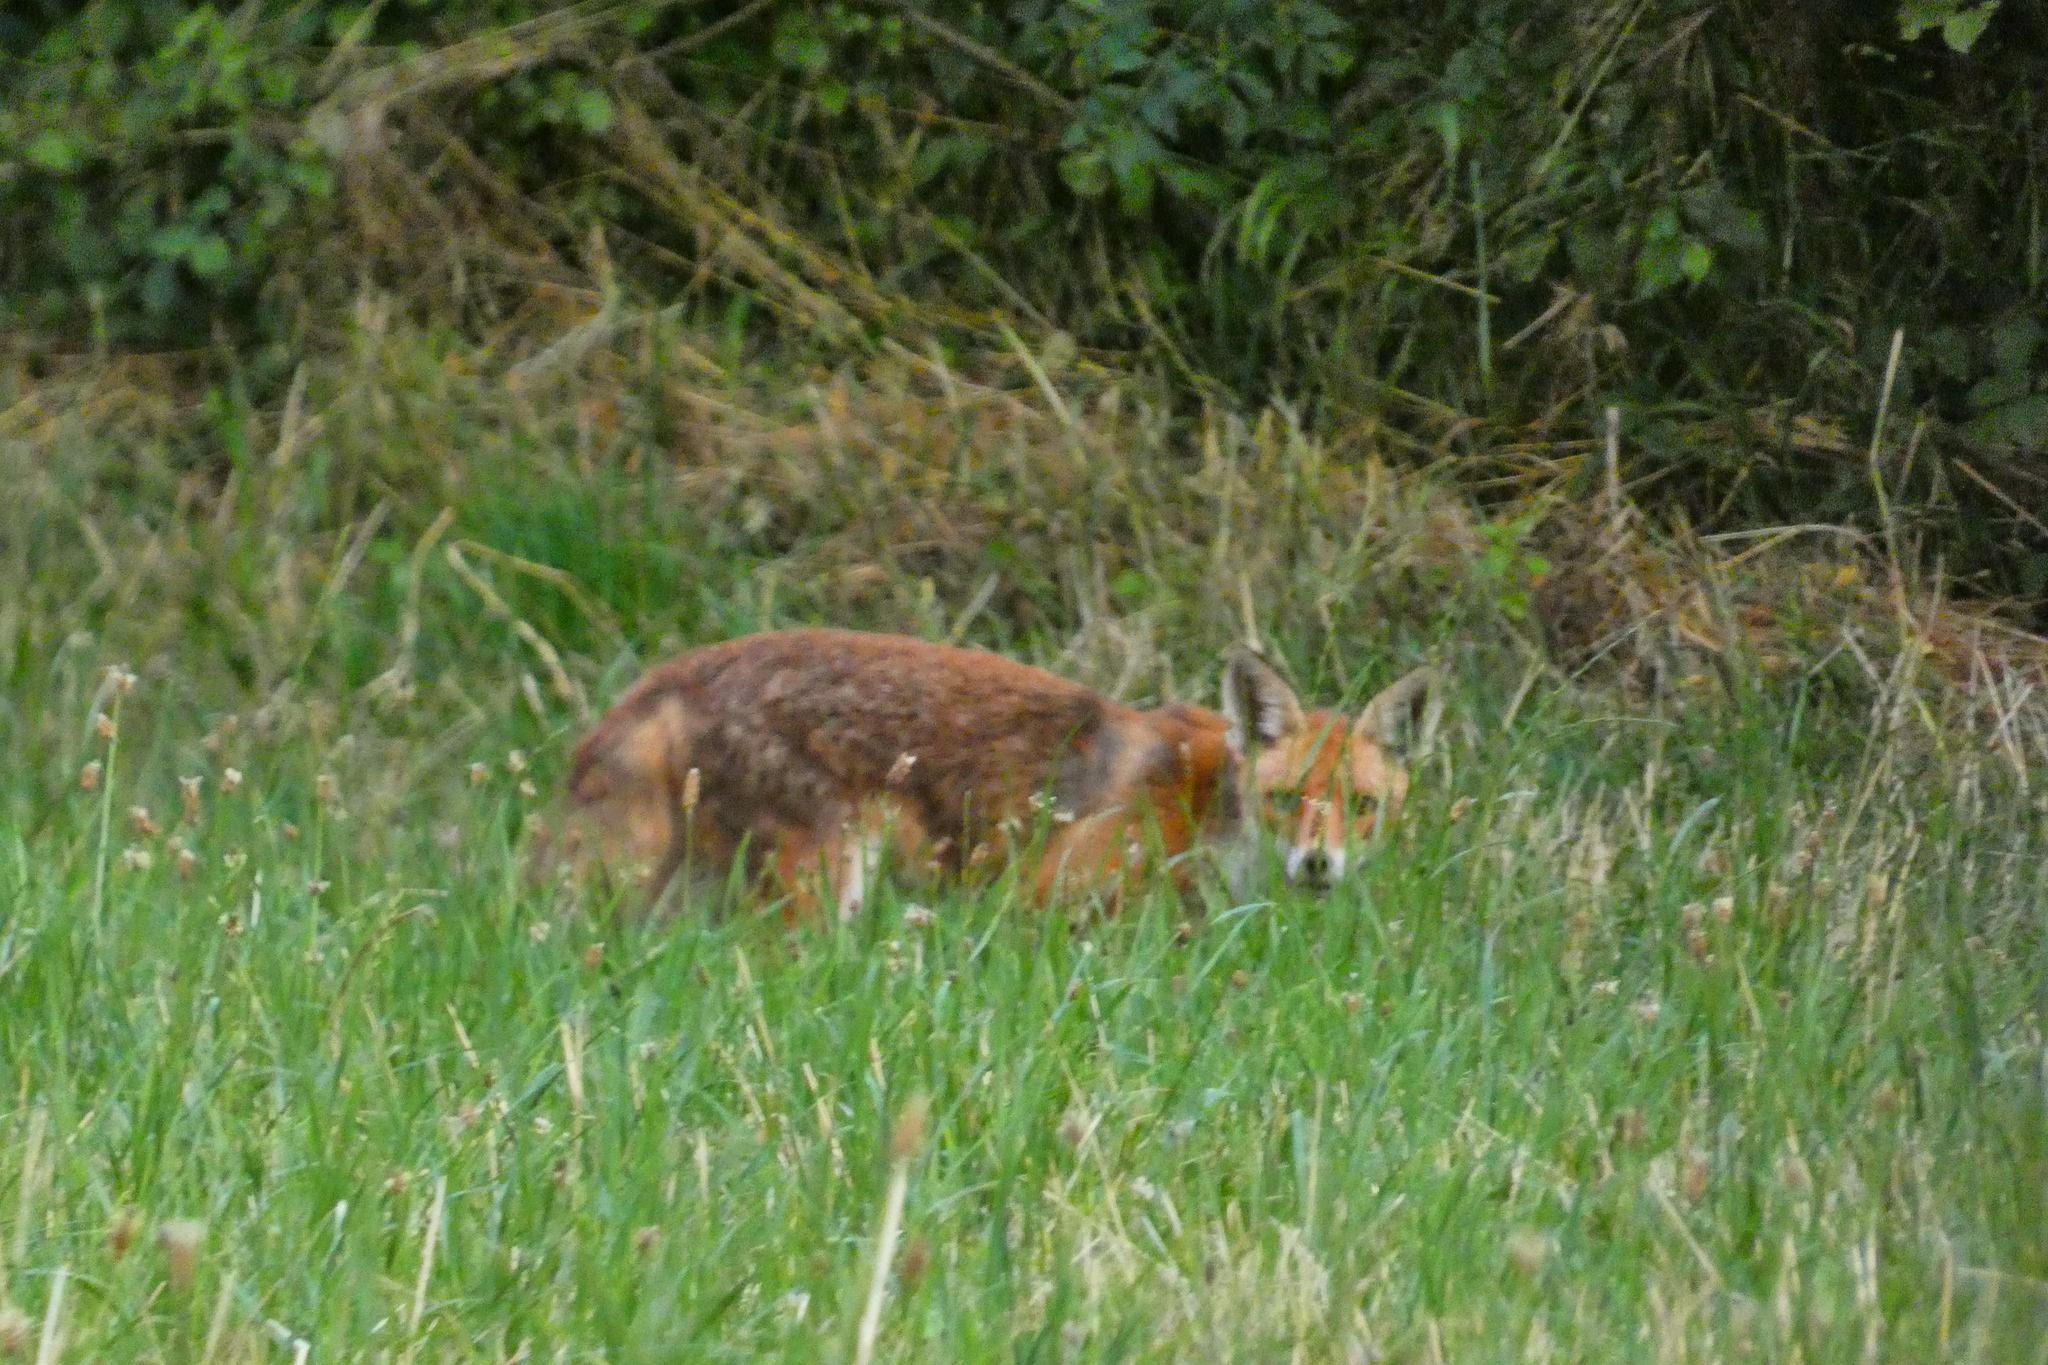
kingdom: Animalia
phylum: Chordata
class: Mammalia
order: Carnivora
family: Canidae
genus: Vulpes
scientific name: Vulpes vulpes
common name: Red fox
